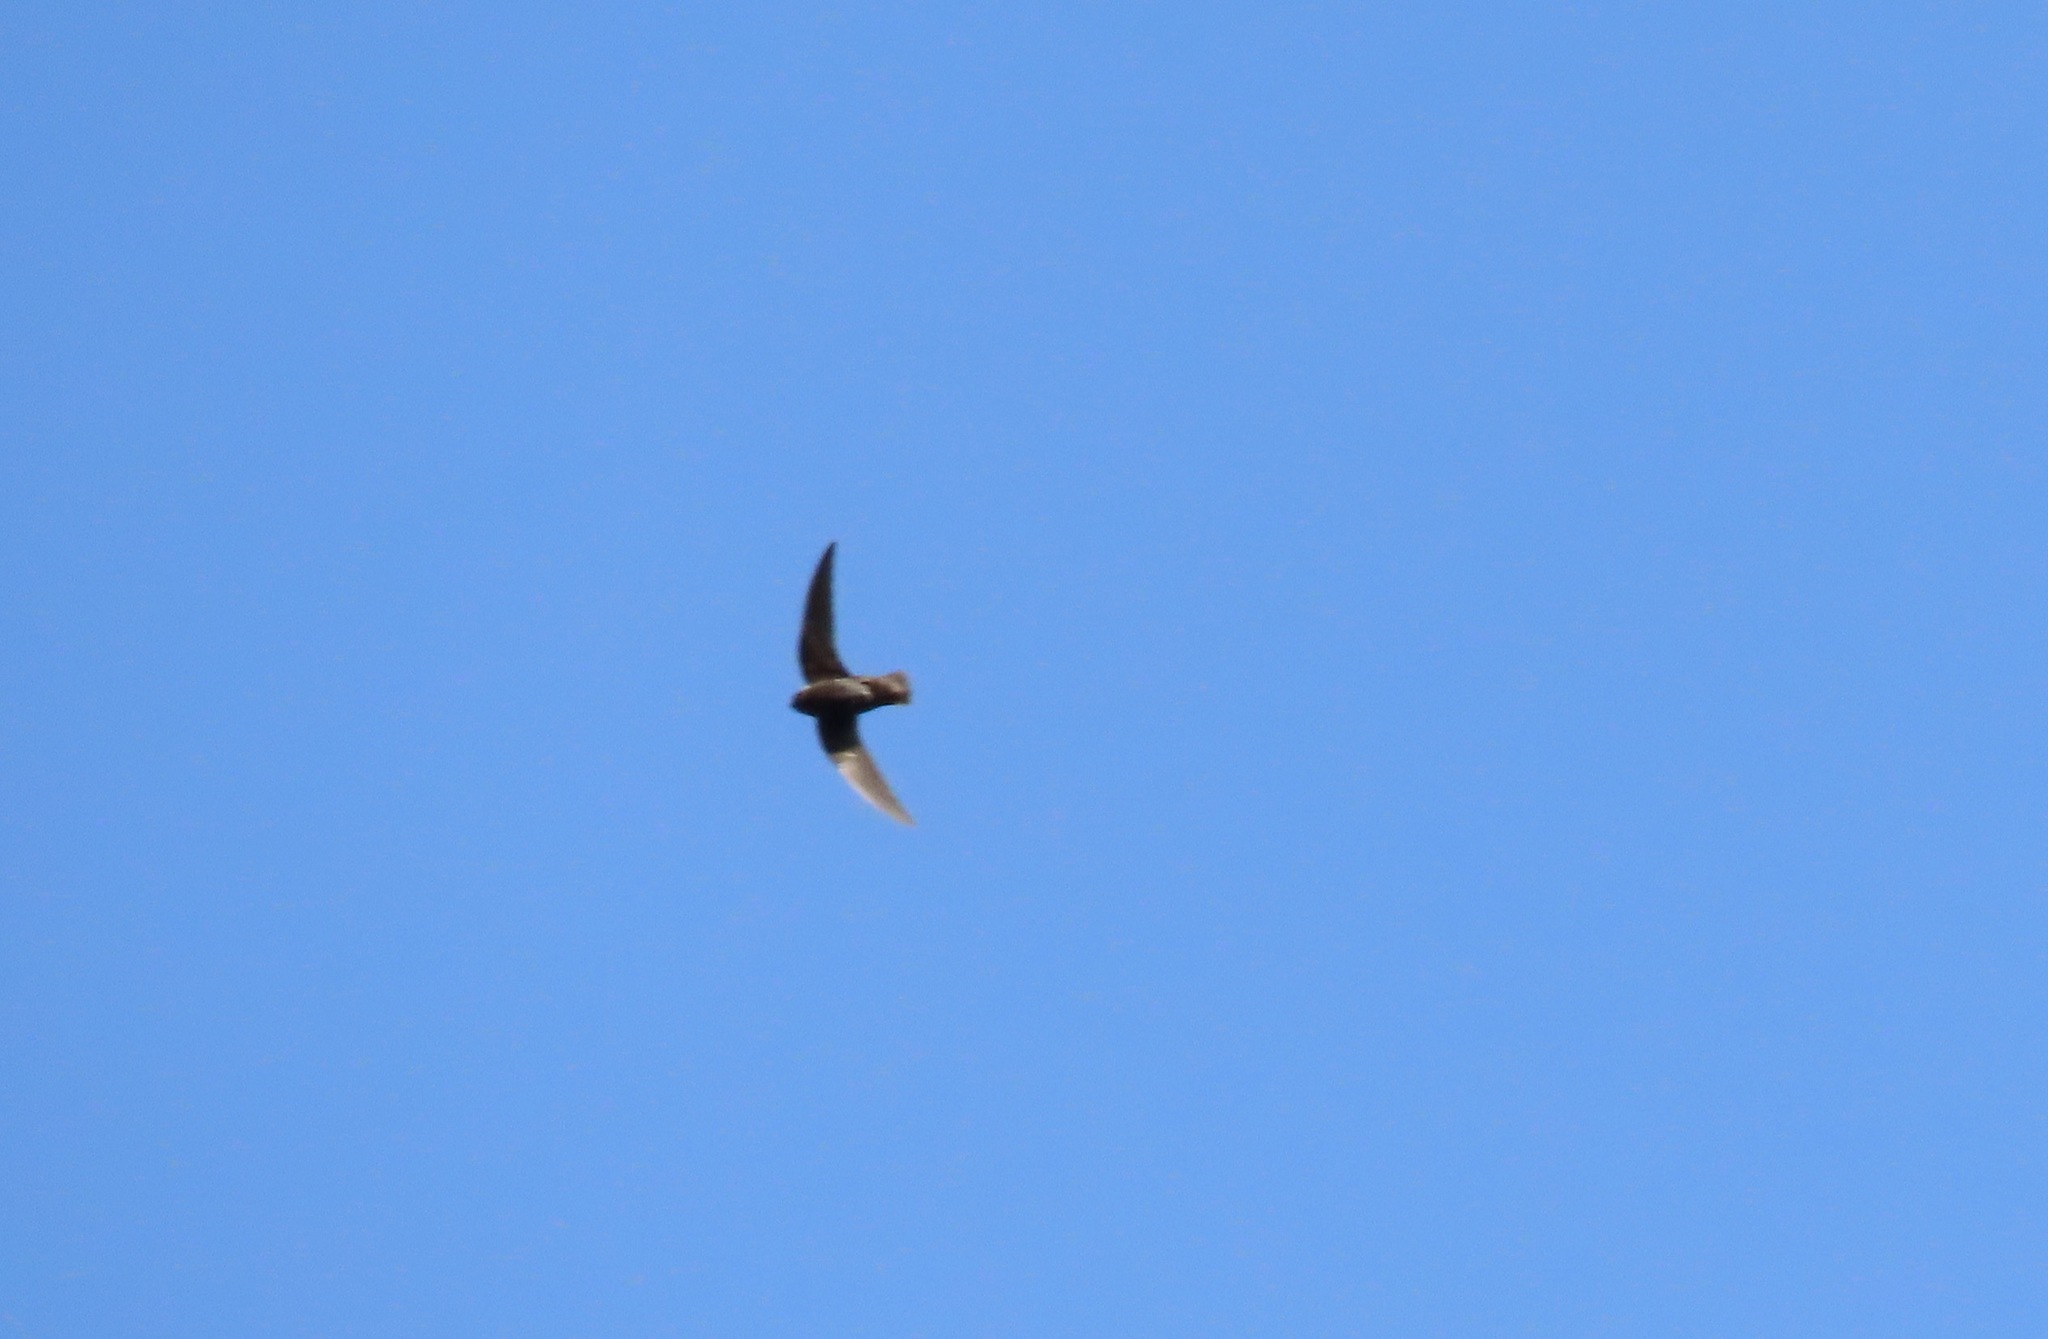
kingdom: Animalia
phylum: Chordata
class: Aves
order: Apodiformes
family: Apodidae
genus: Chaetura
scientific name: Chaetura vauxi
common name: Vaux's swift
